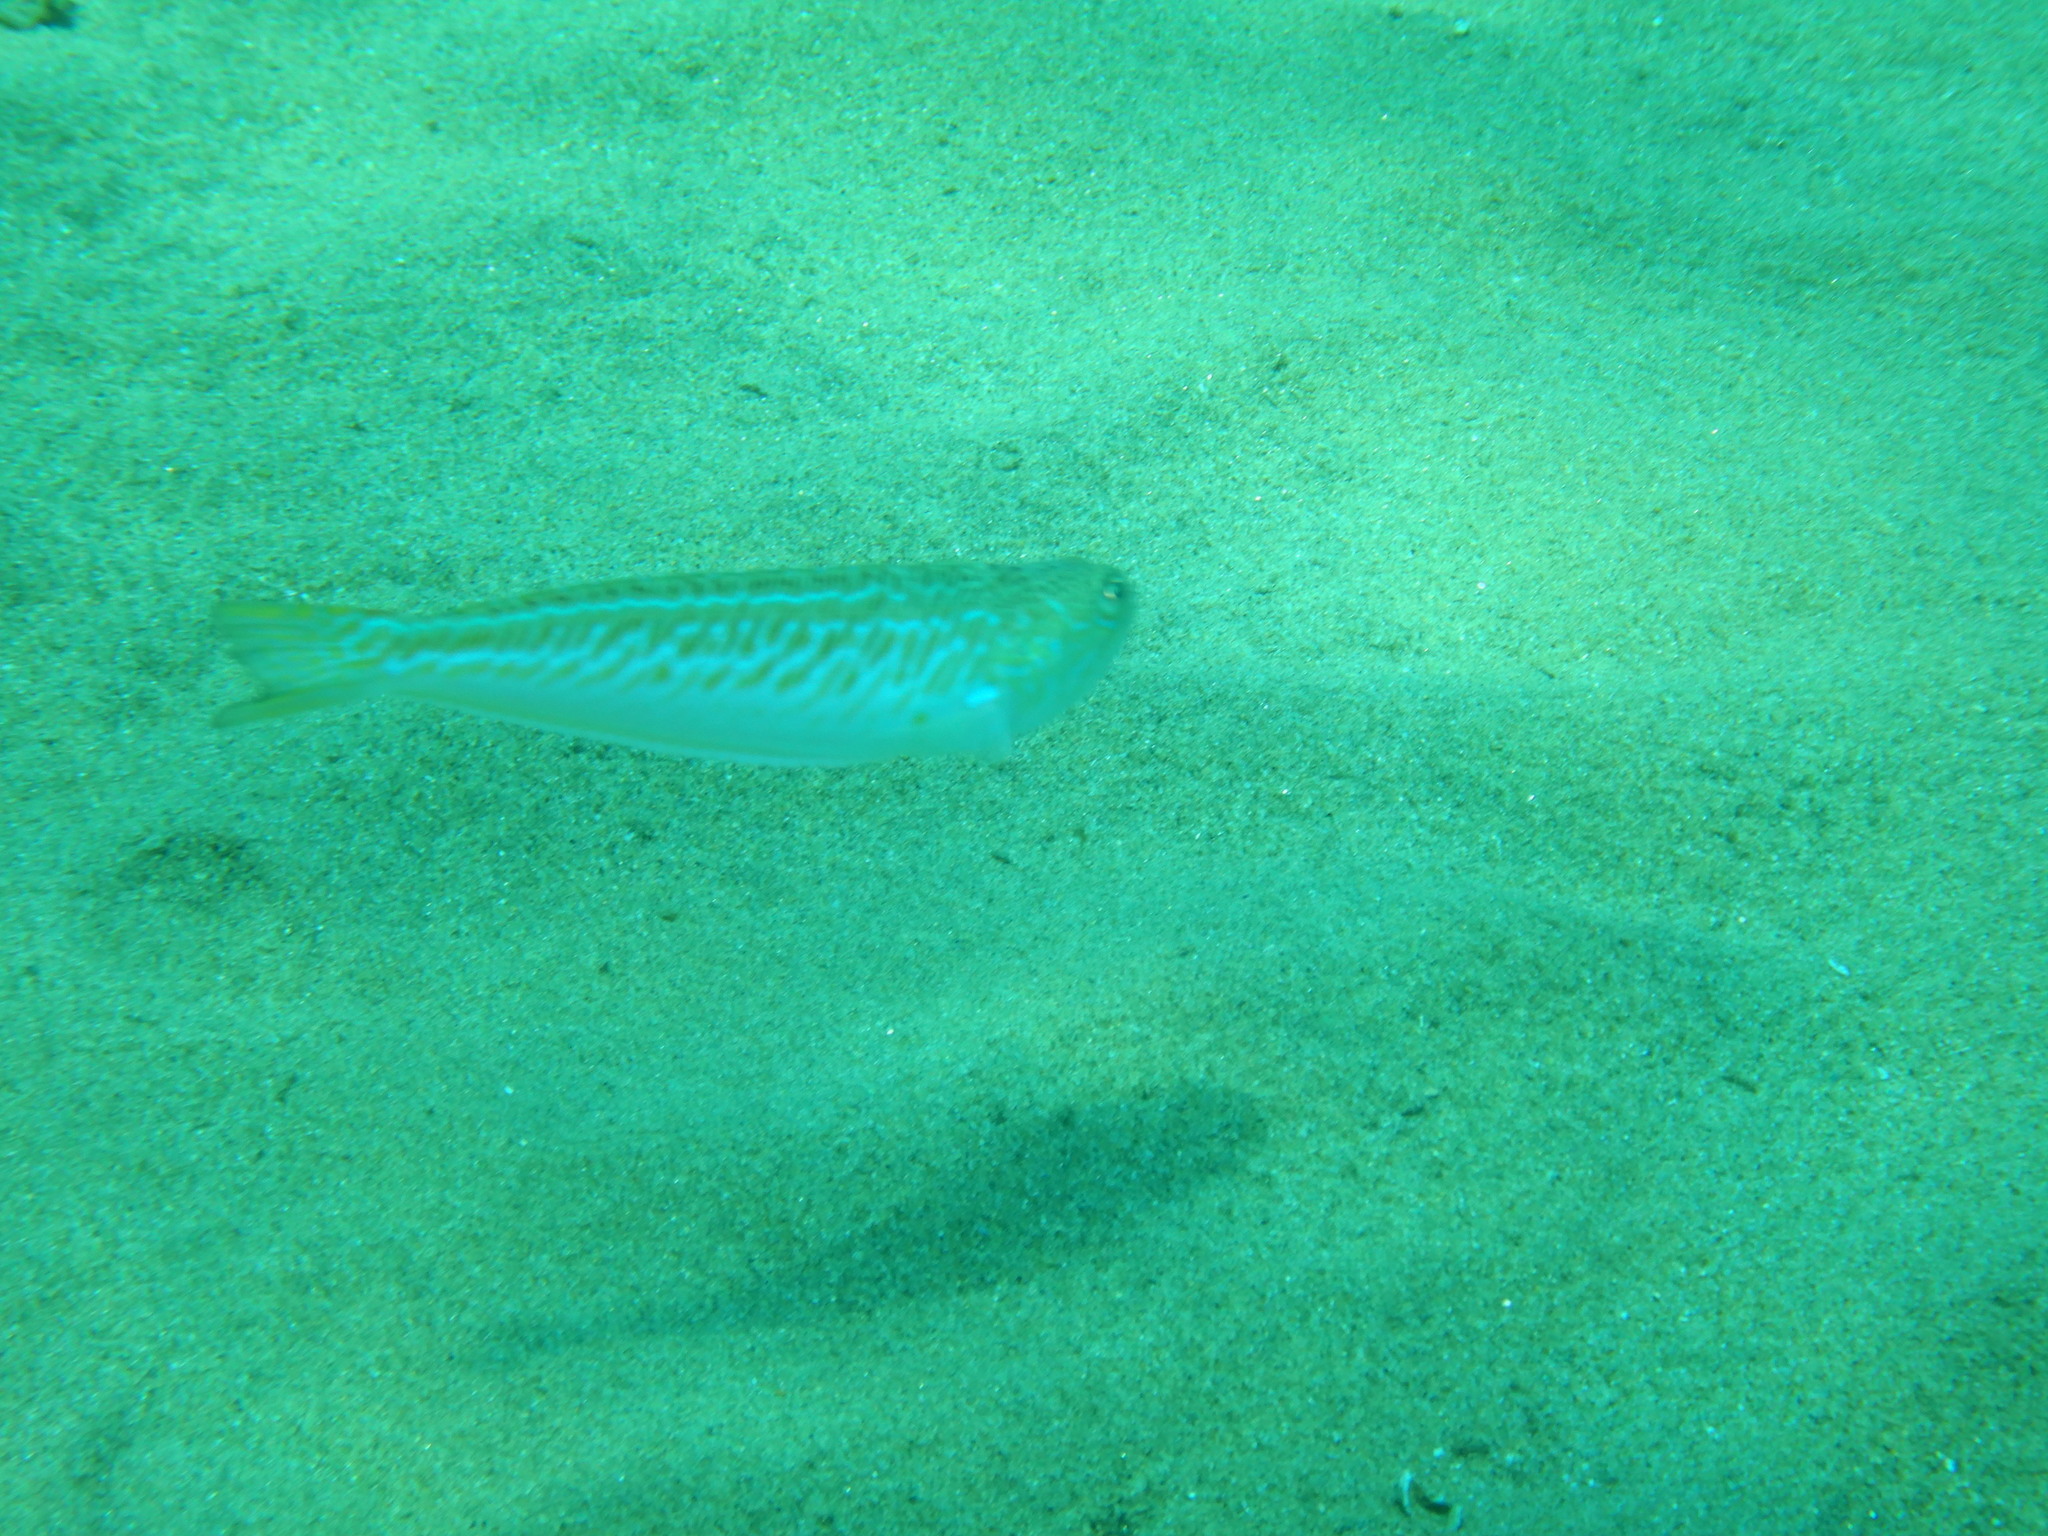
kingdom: Animalia
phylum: Chordata
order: Perciformes
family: Trachinidae
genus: Trachinus
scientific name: Trachinus draco
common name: Greater weever
